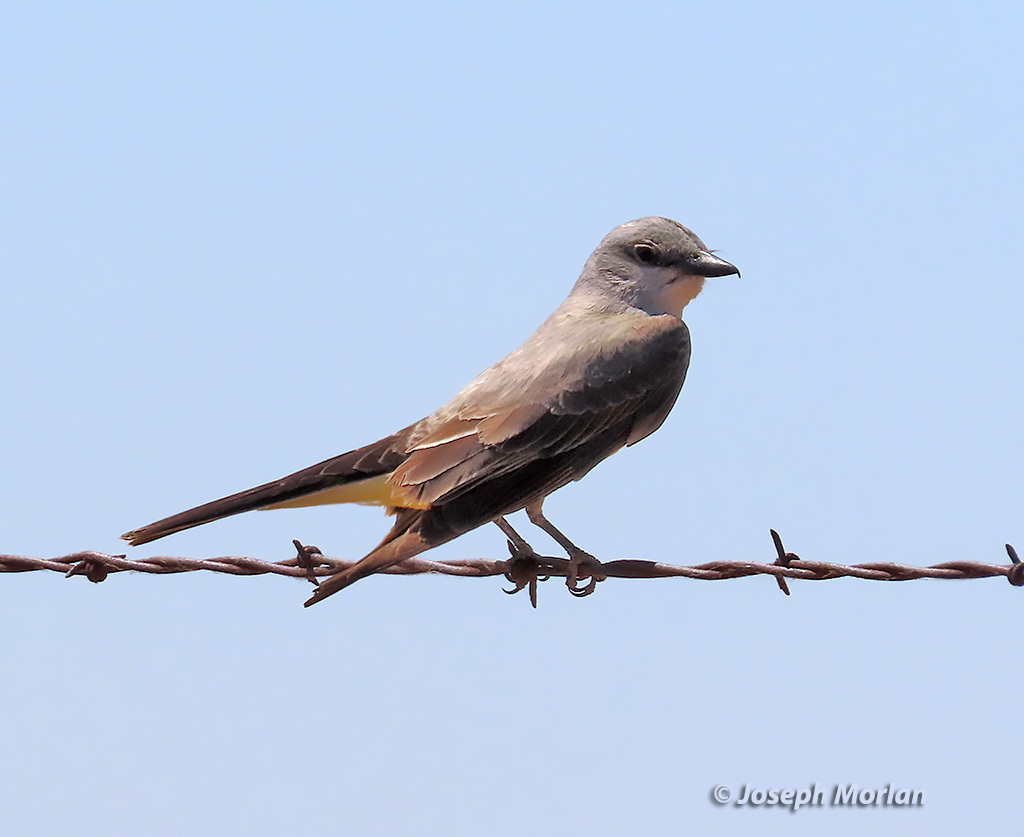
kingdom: Animalia
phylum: Chordata
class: Aves
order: Passeriformes
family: Tyrannidae
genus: Tyrannus
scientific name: Tyrannus verticalis
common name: Western kingbird
